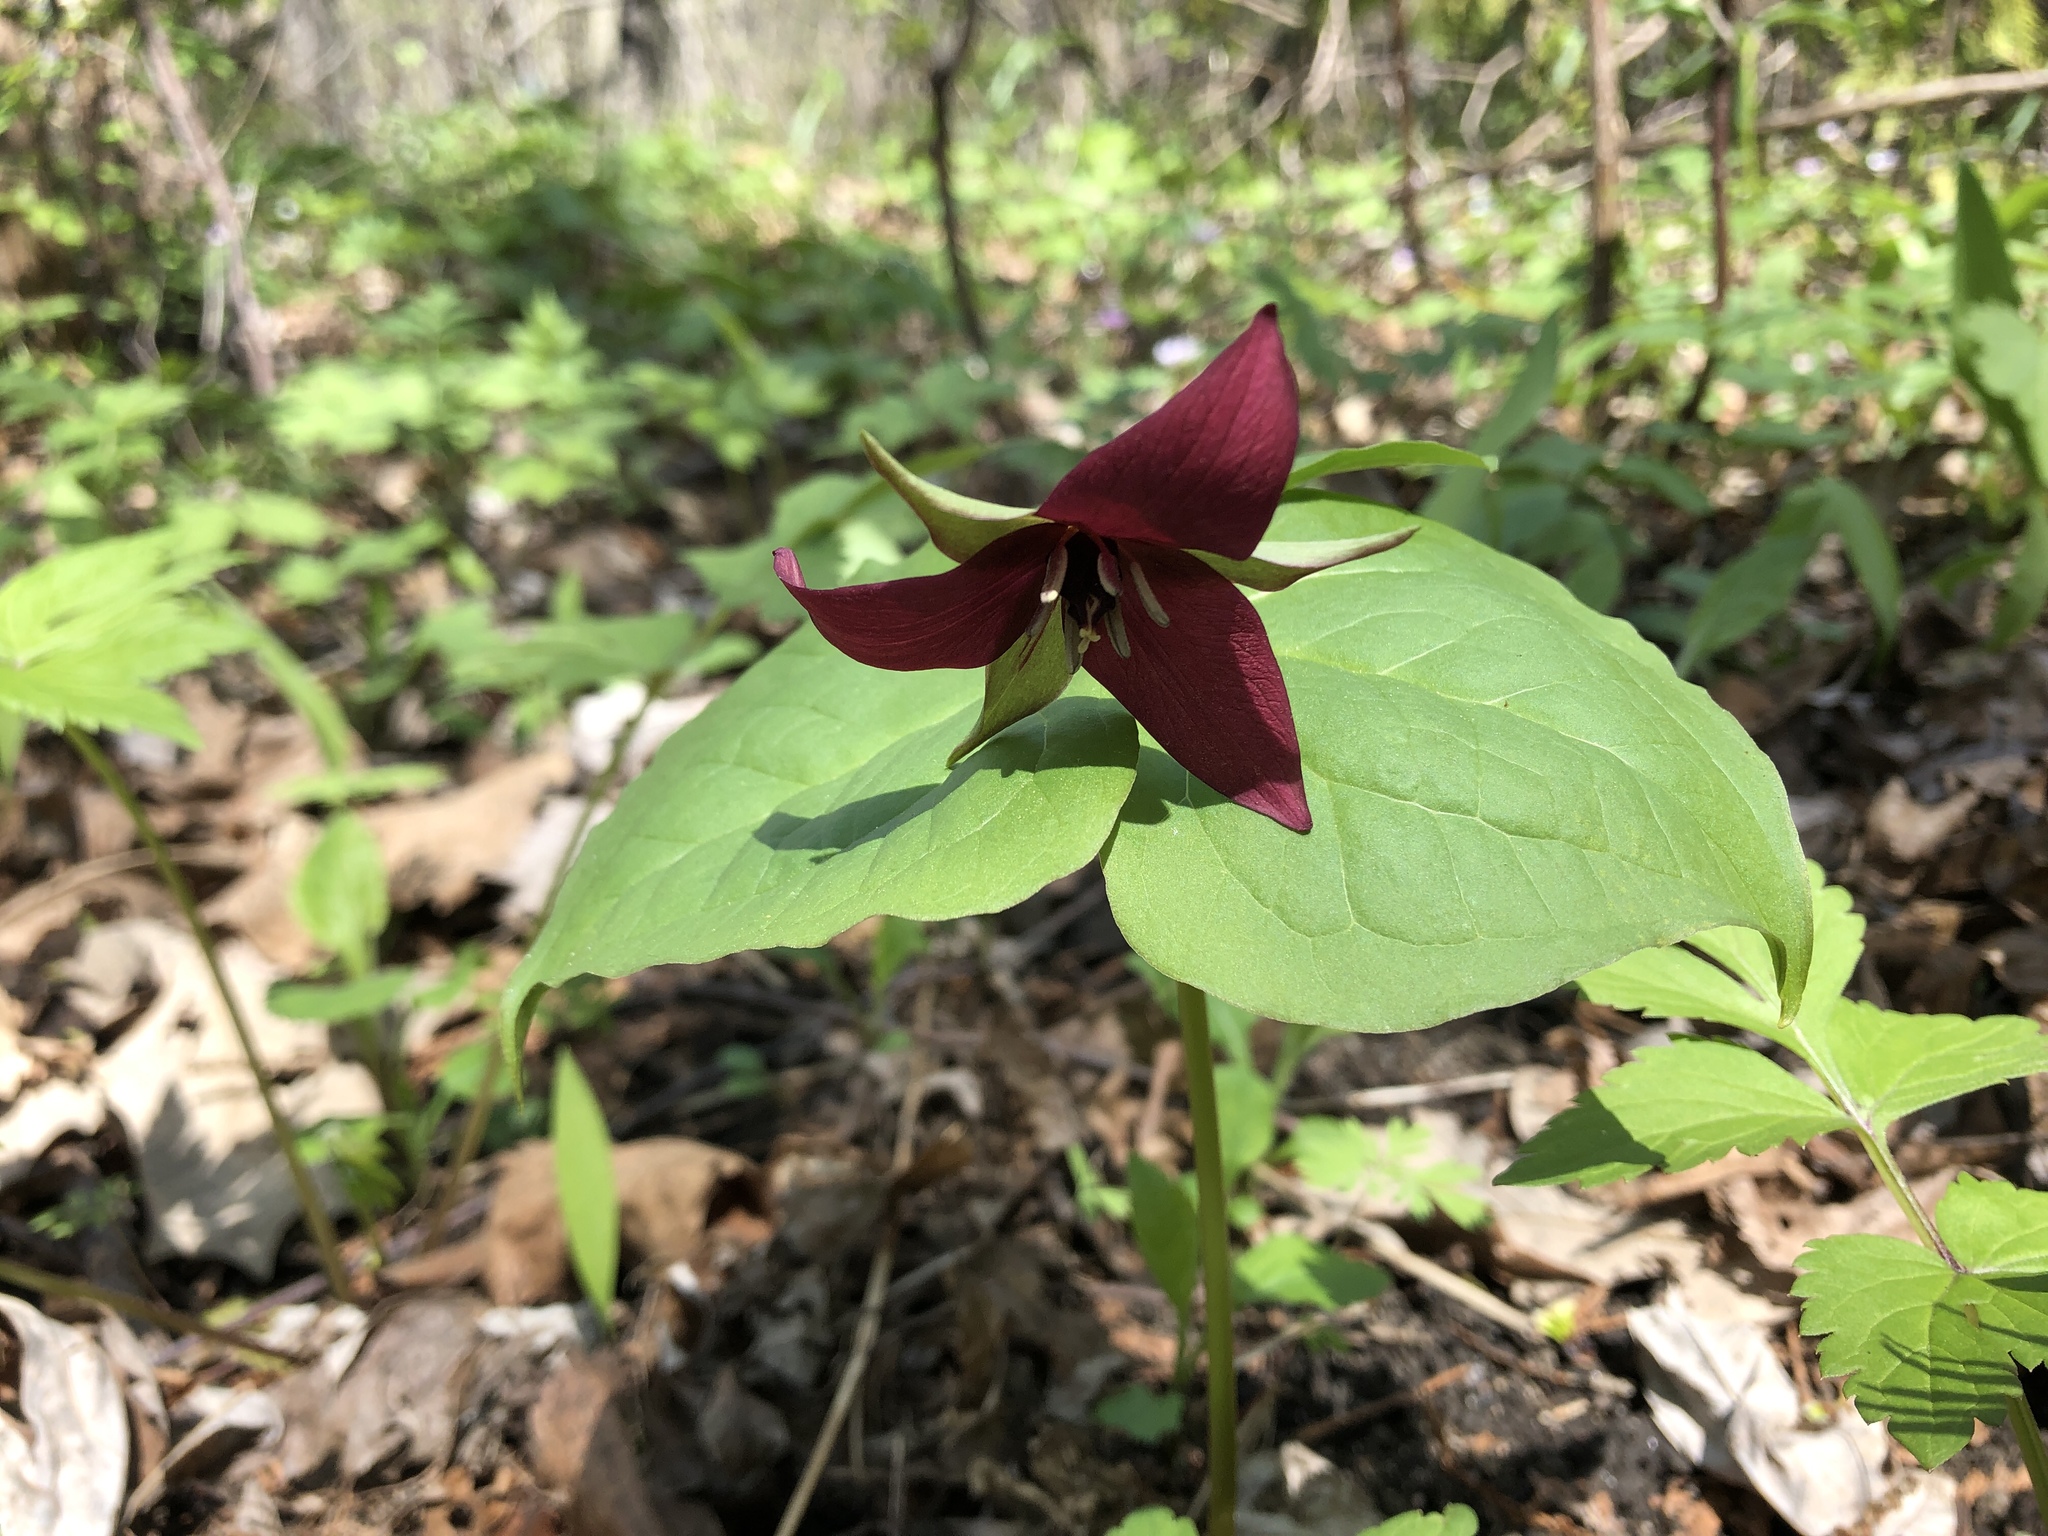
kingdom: Plantae
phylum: Tracheophyta
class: Liliopsida
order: Liliales
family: Melanthiaceae
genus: Trillium
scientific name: Trillium erectum
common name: Purple trillium
